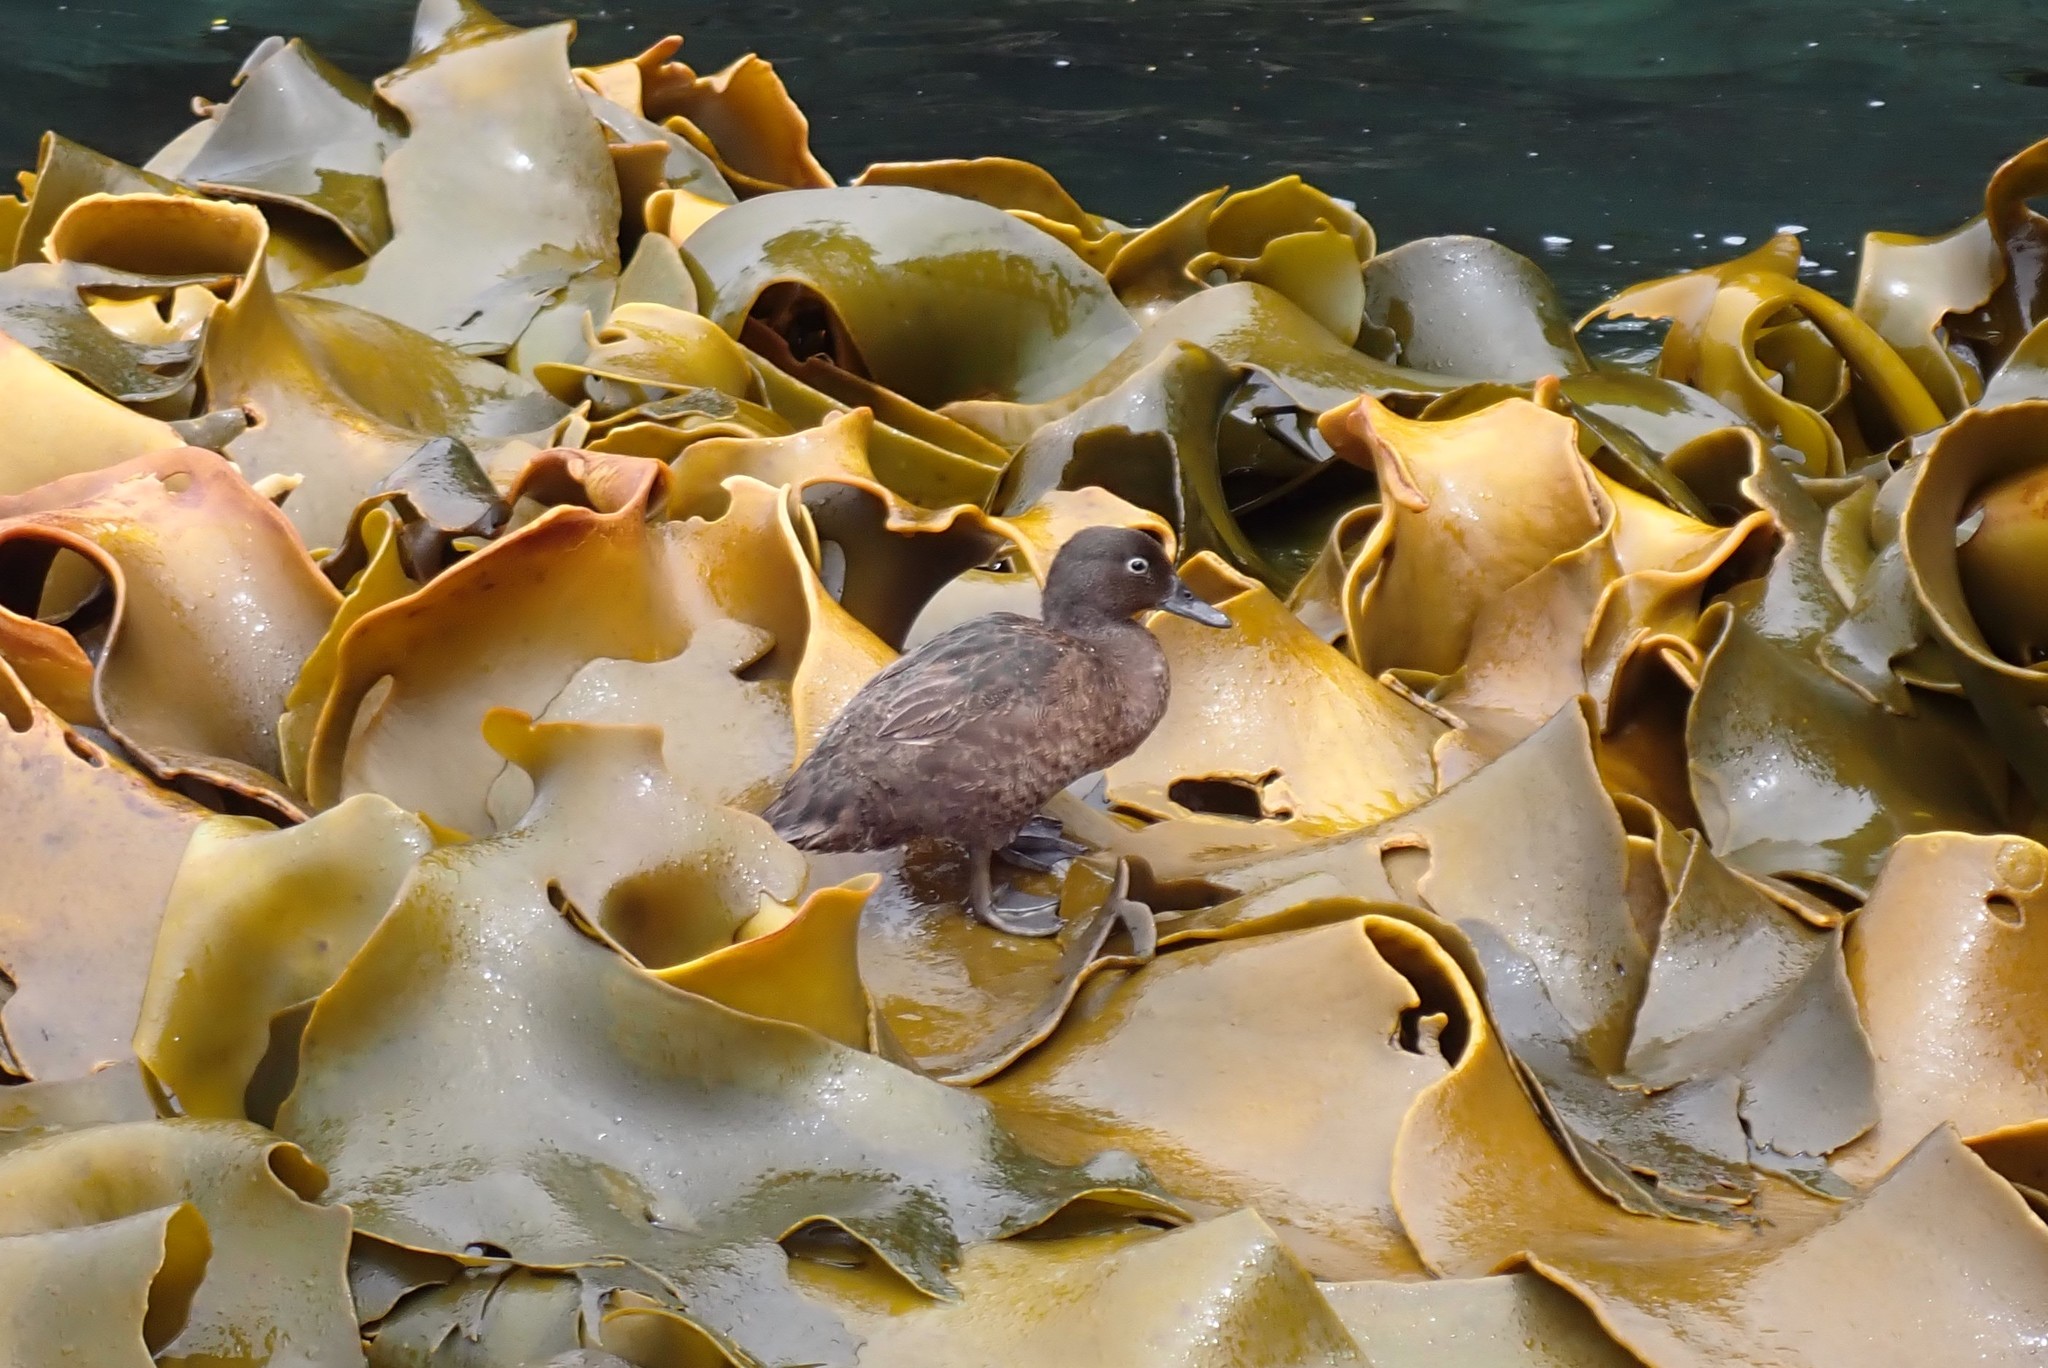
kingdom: Animalia
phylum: Chordata
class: Aves
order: Anseriformes
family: Anatidae
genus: Anas
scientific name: Anas aucklandica
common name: Auckland teal
